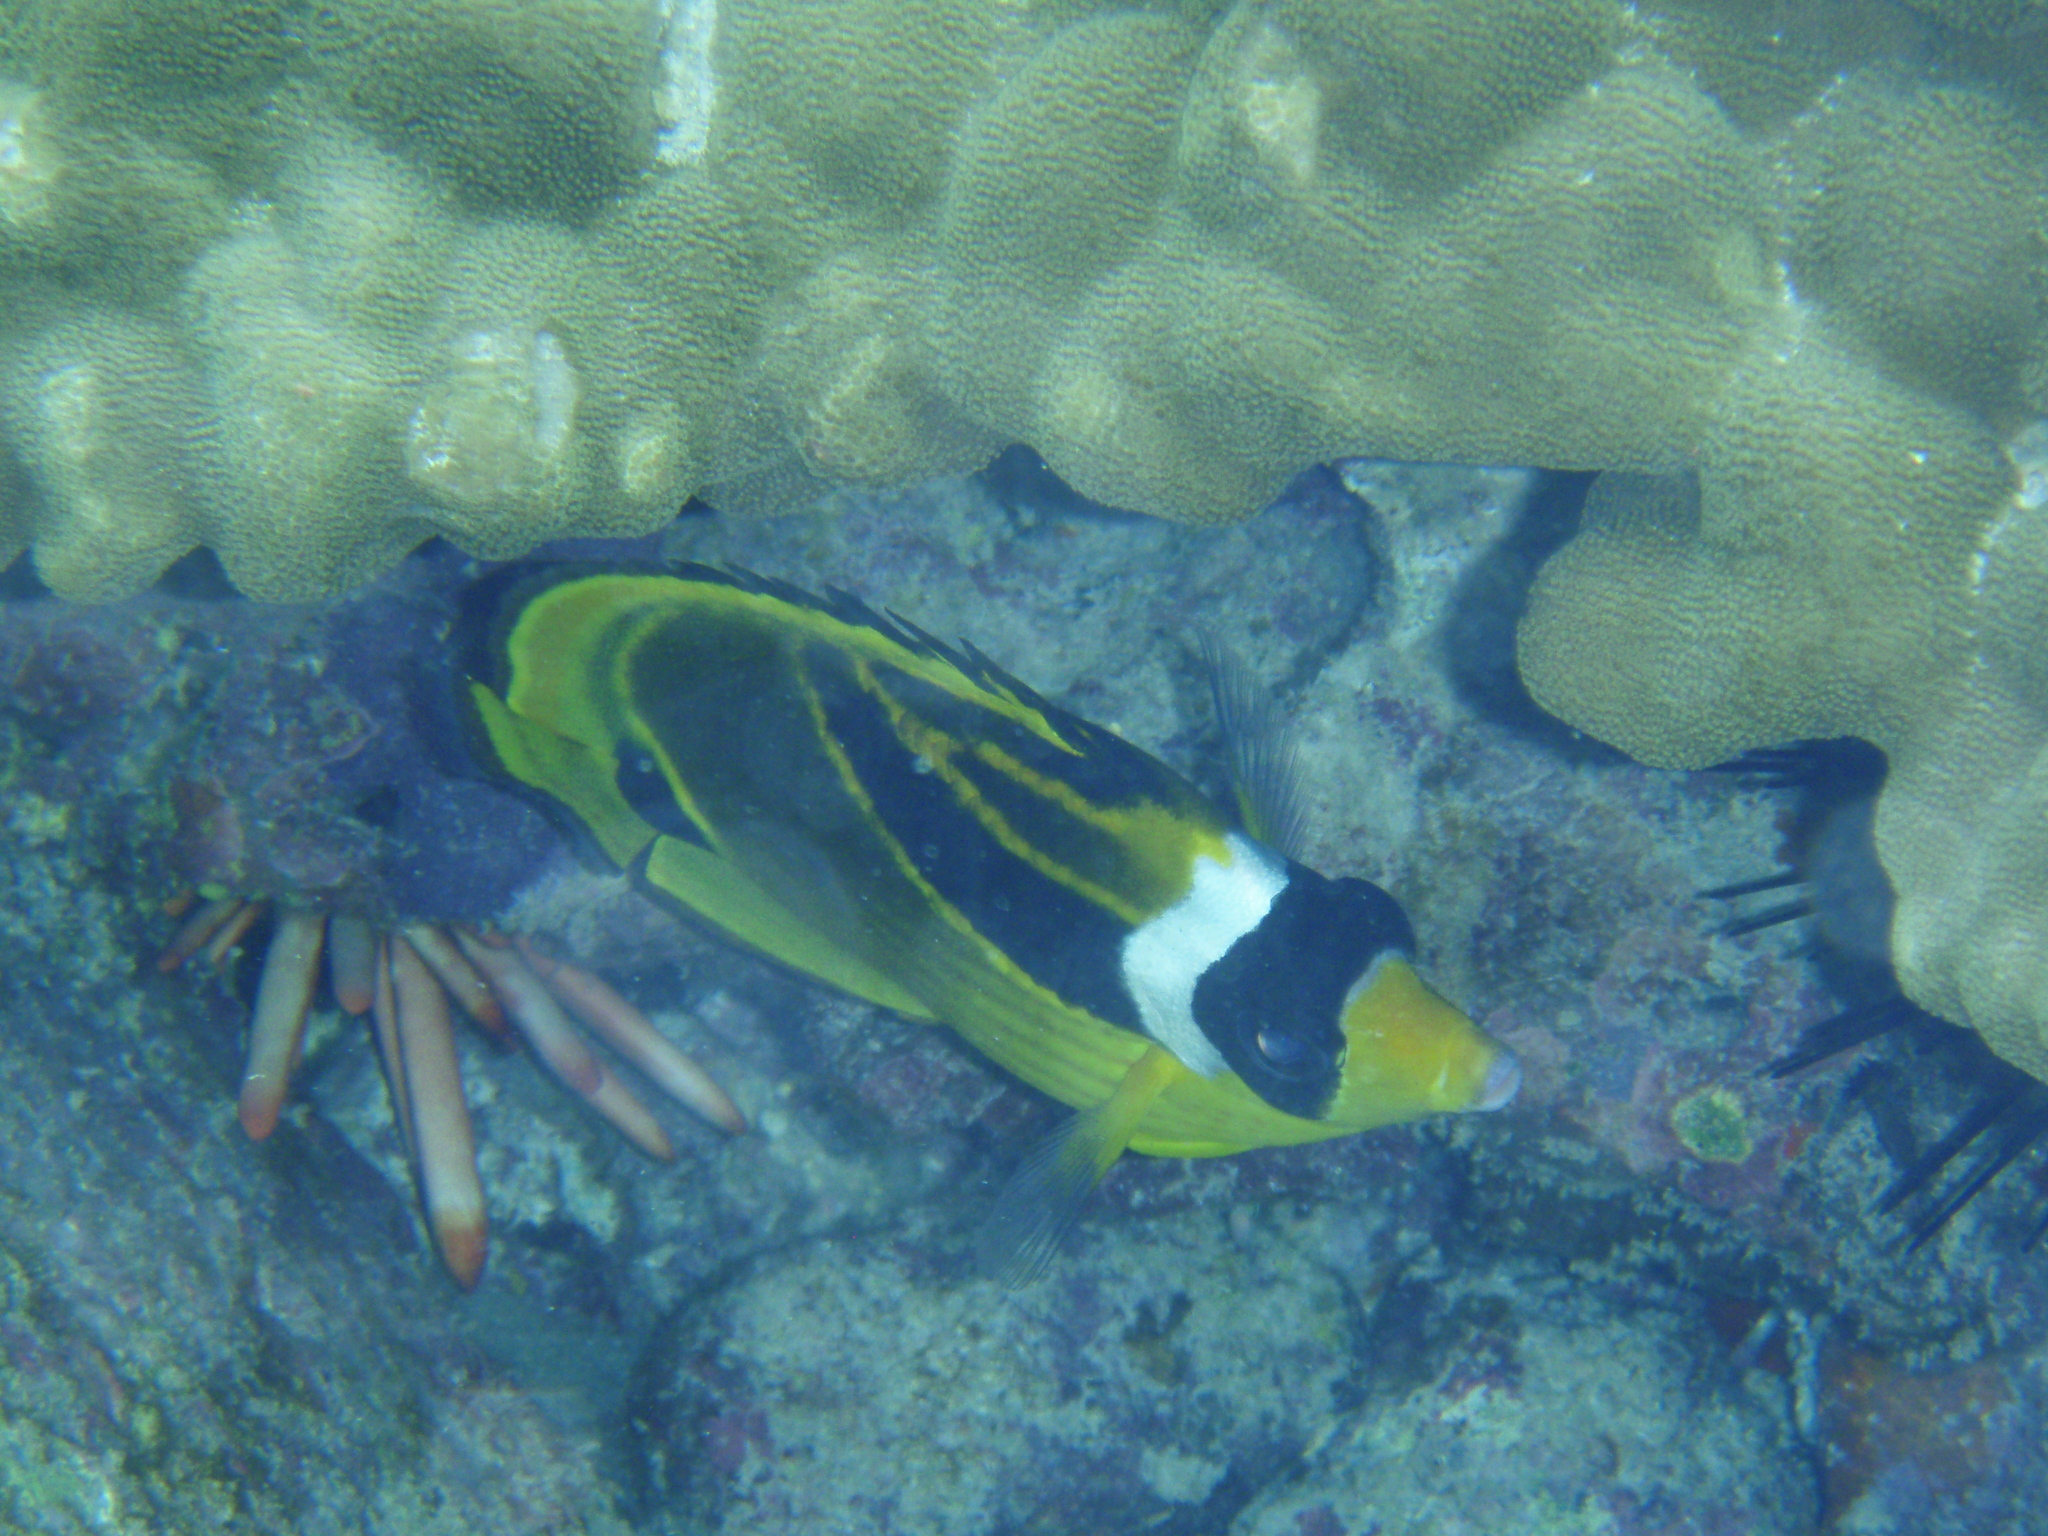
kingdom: Animalia
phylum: Chordata
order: Perciformes
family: Chaetodontidae
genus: Chaetodon
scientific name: Chaetodon lunula
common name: Raccoon butterflyfish
